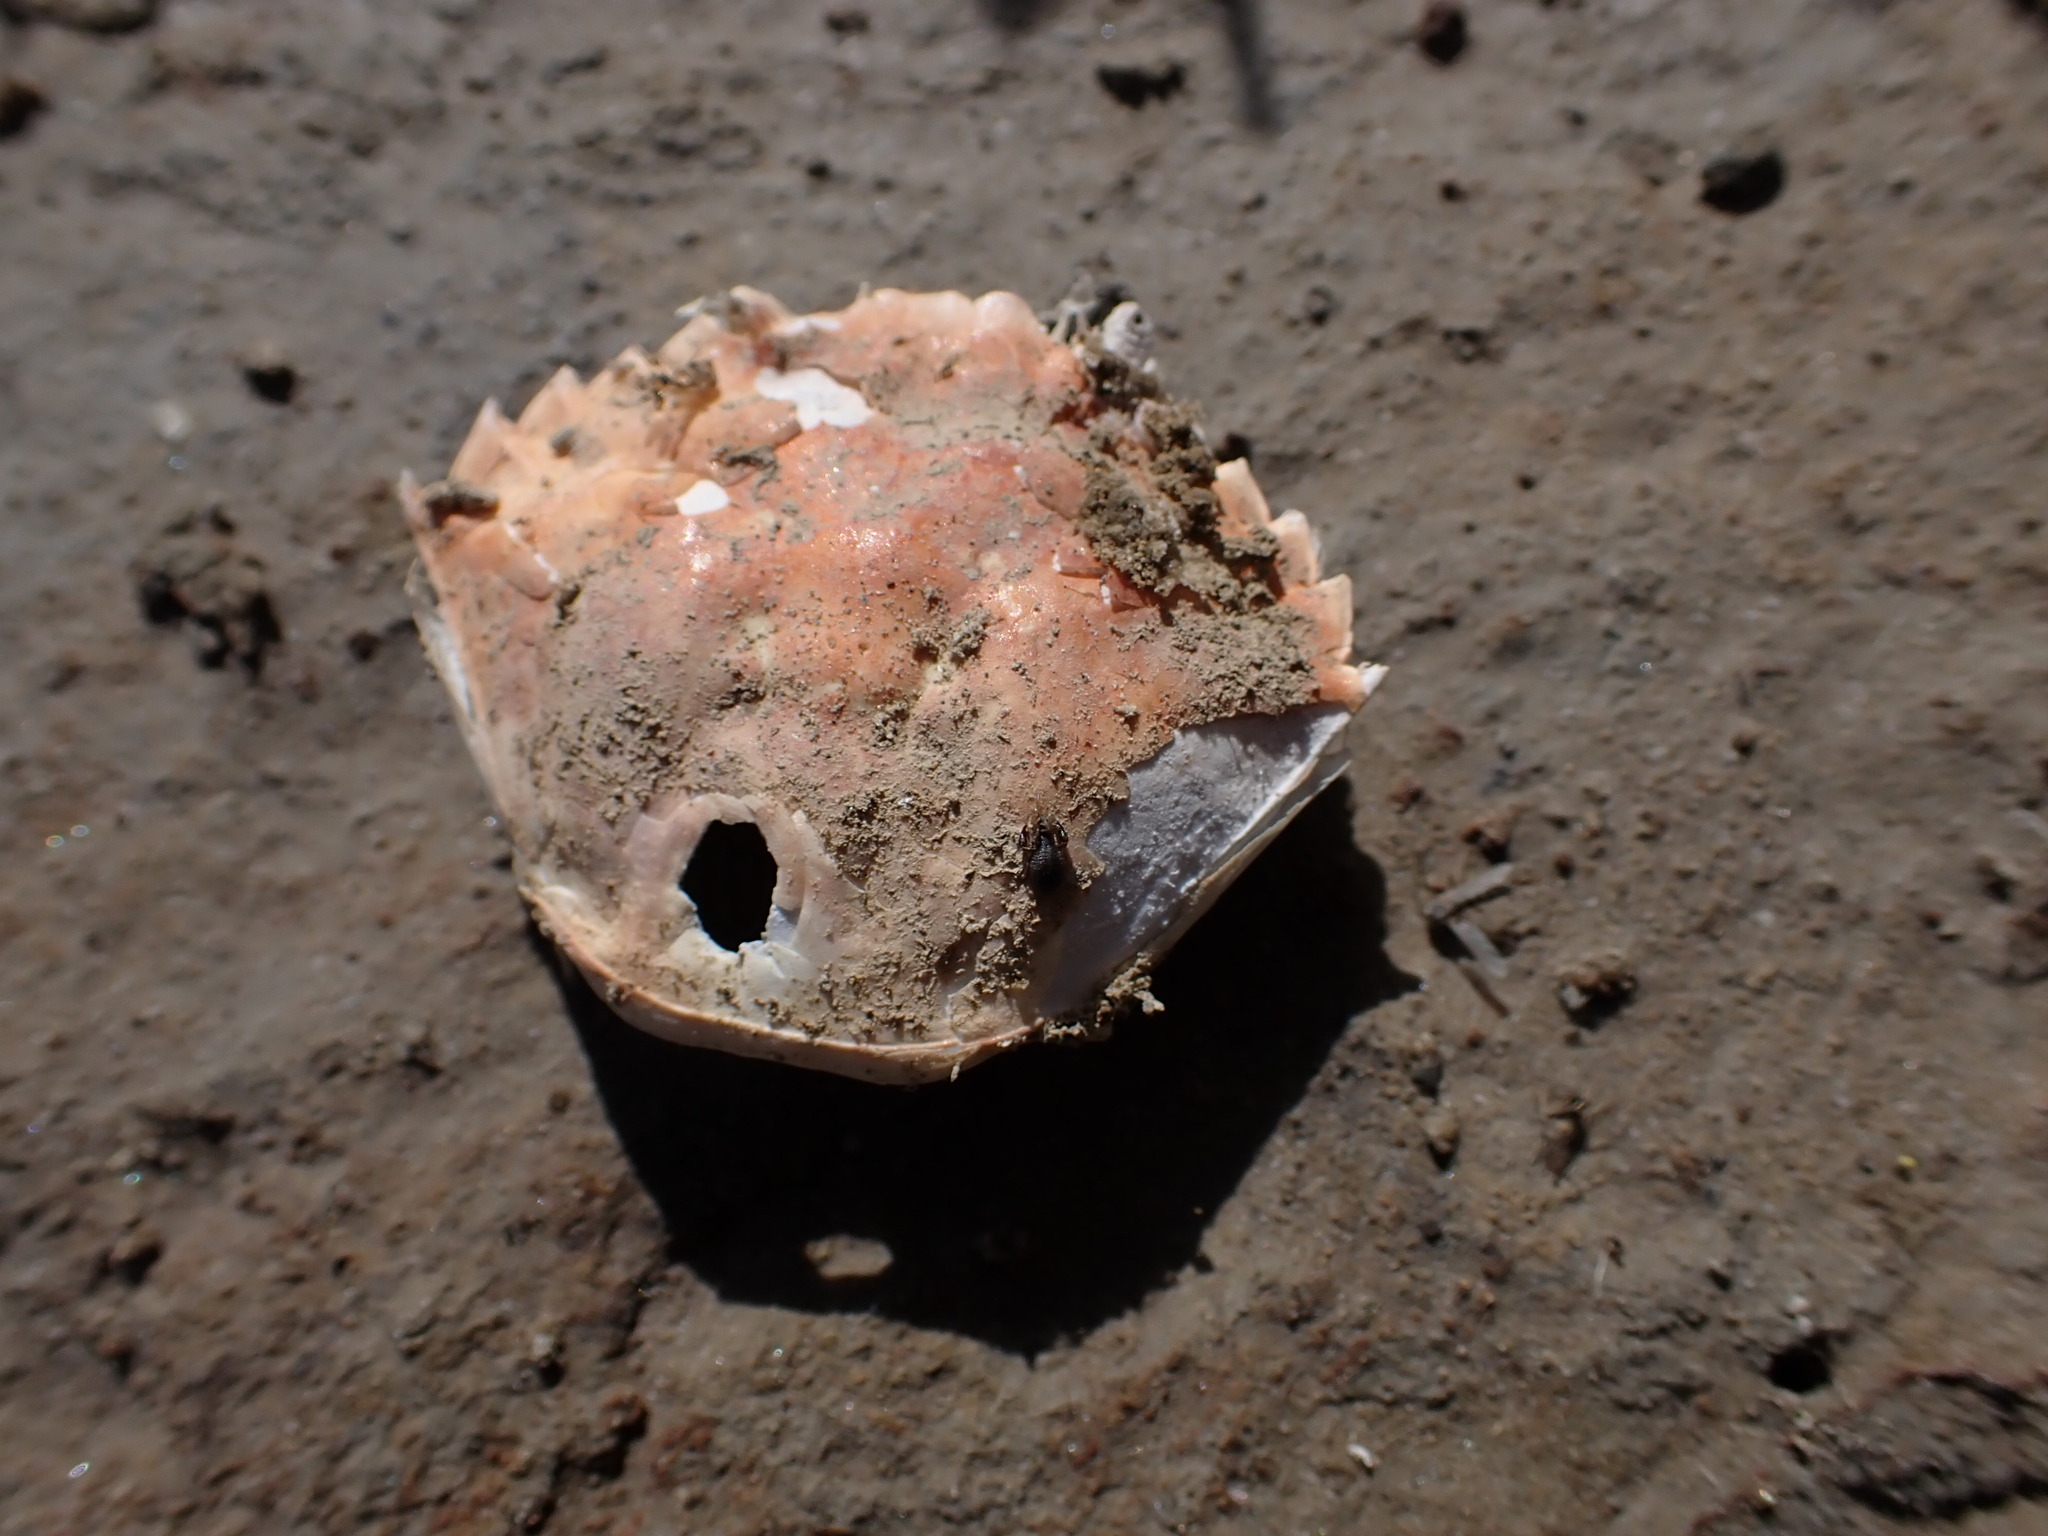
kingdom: Animalia
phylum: Arthropoda
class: Malacostraca
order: Decapoda
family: Carcinidae
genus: Carcinus
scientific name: Carcinus aestuarii
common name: Mediterranean green crab
